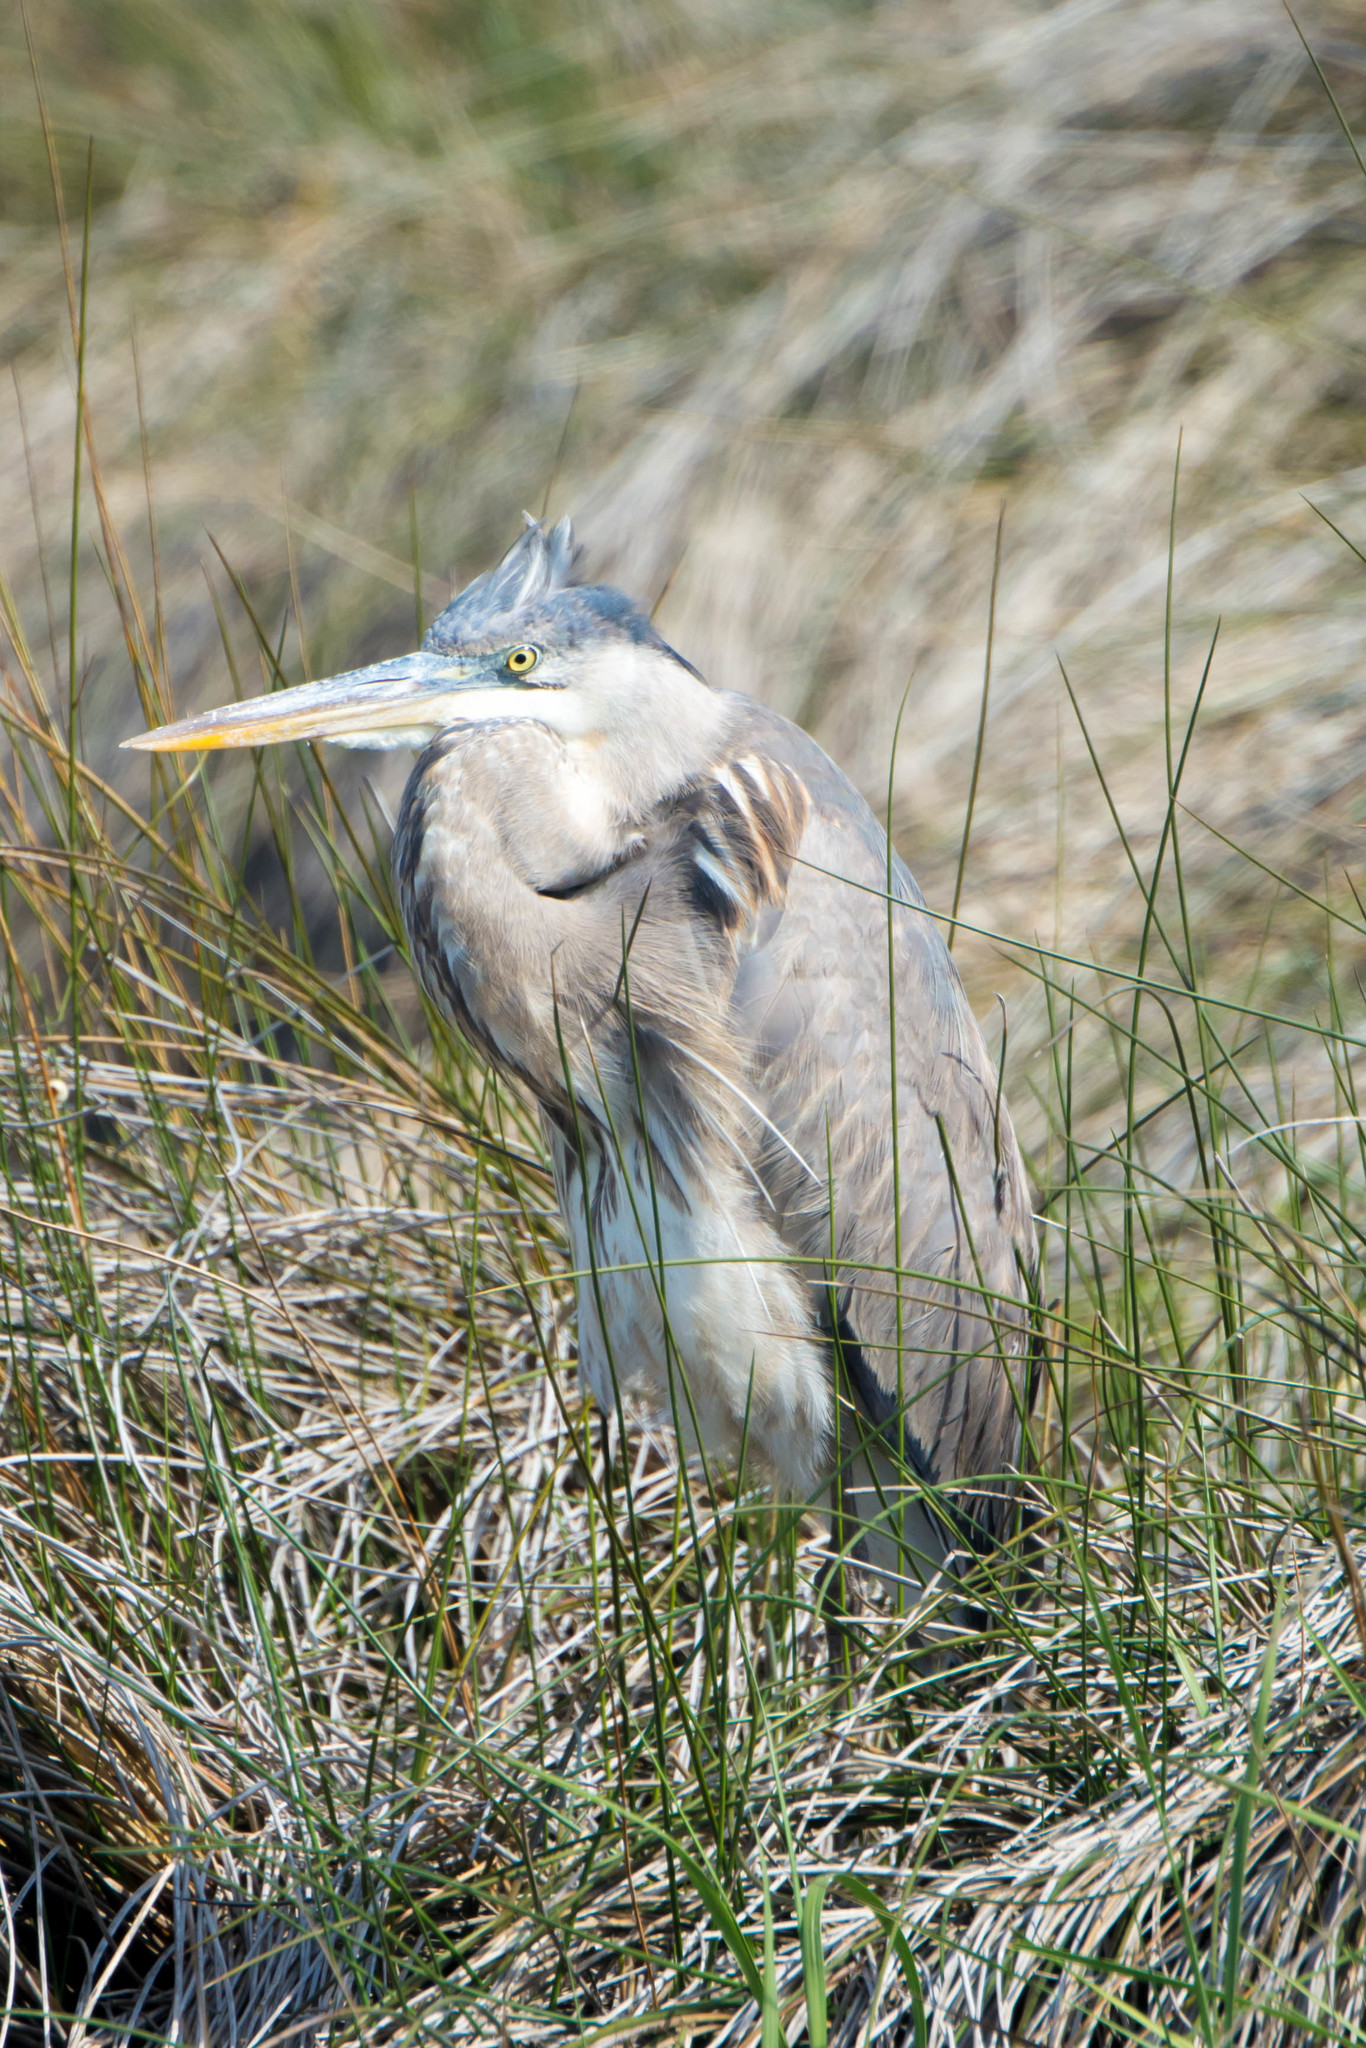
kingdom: Animalia
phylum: Chordata
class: Aves
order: Pelecaniformes
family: Ardeidae
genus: Ardea
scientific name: Ardea herodias
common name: Great blue heron
